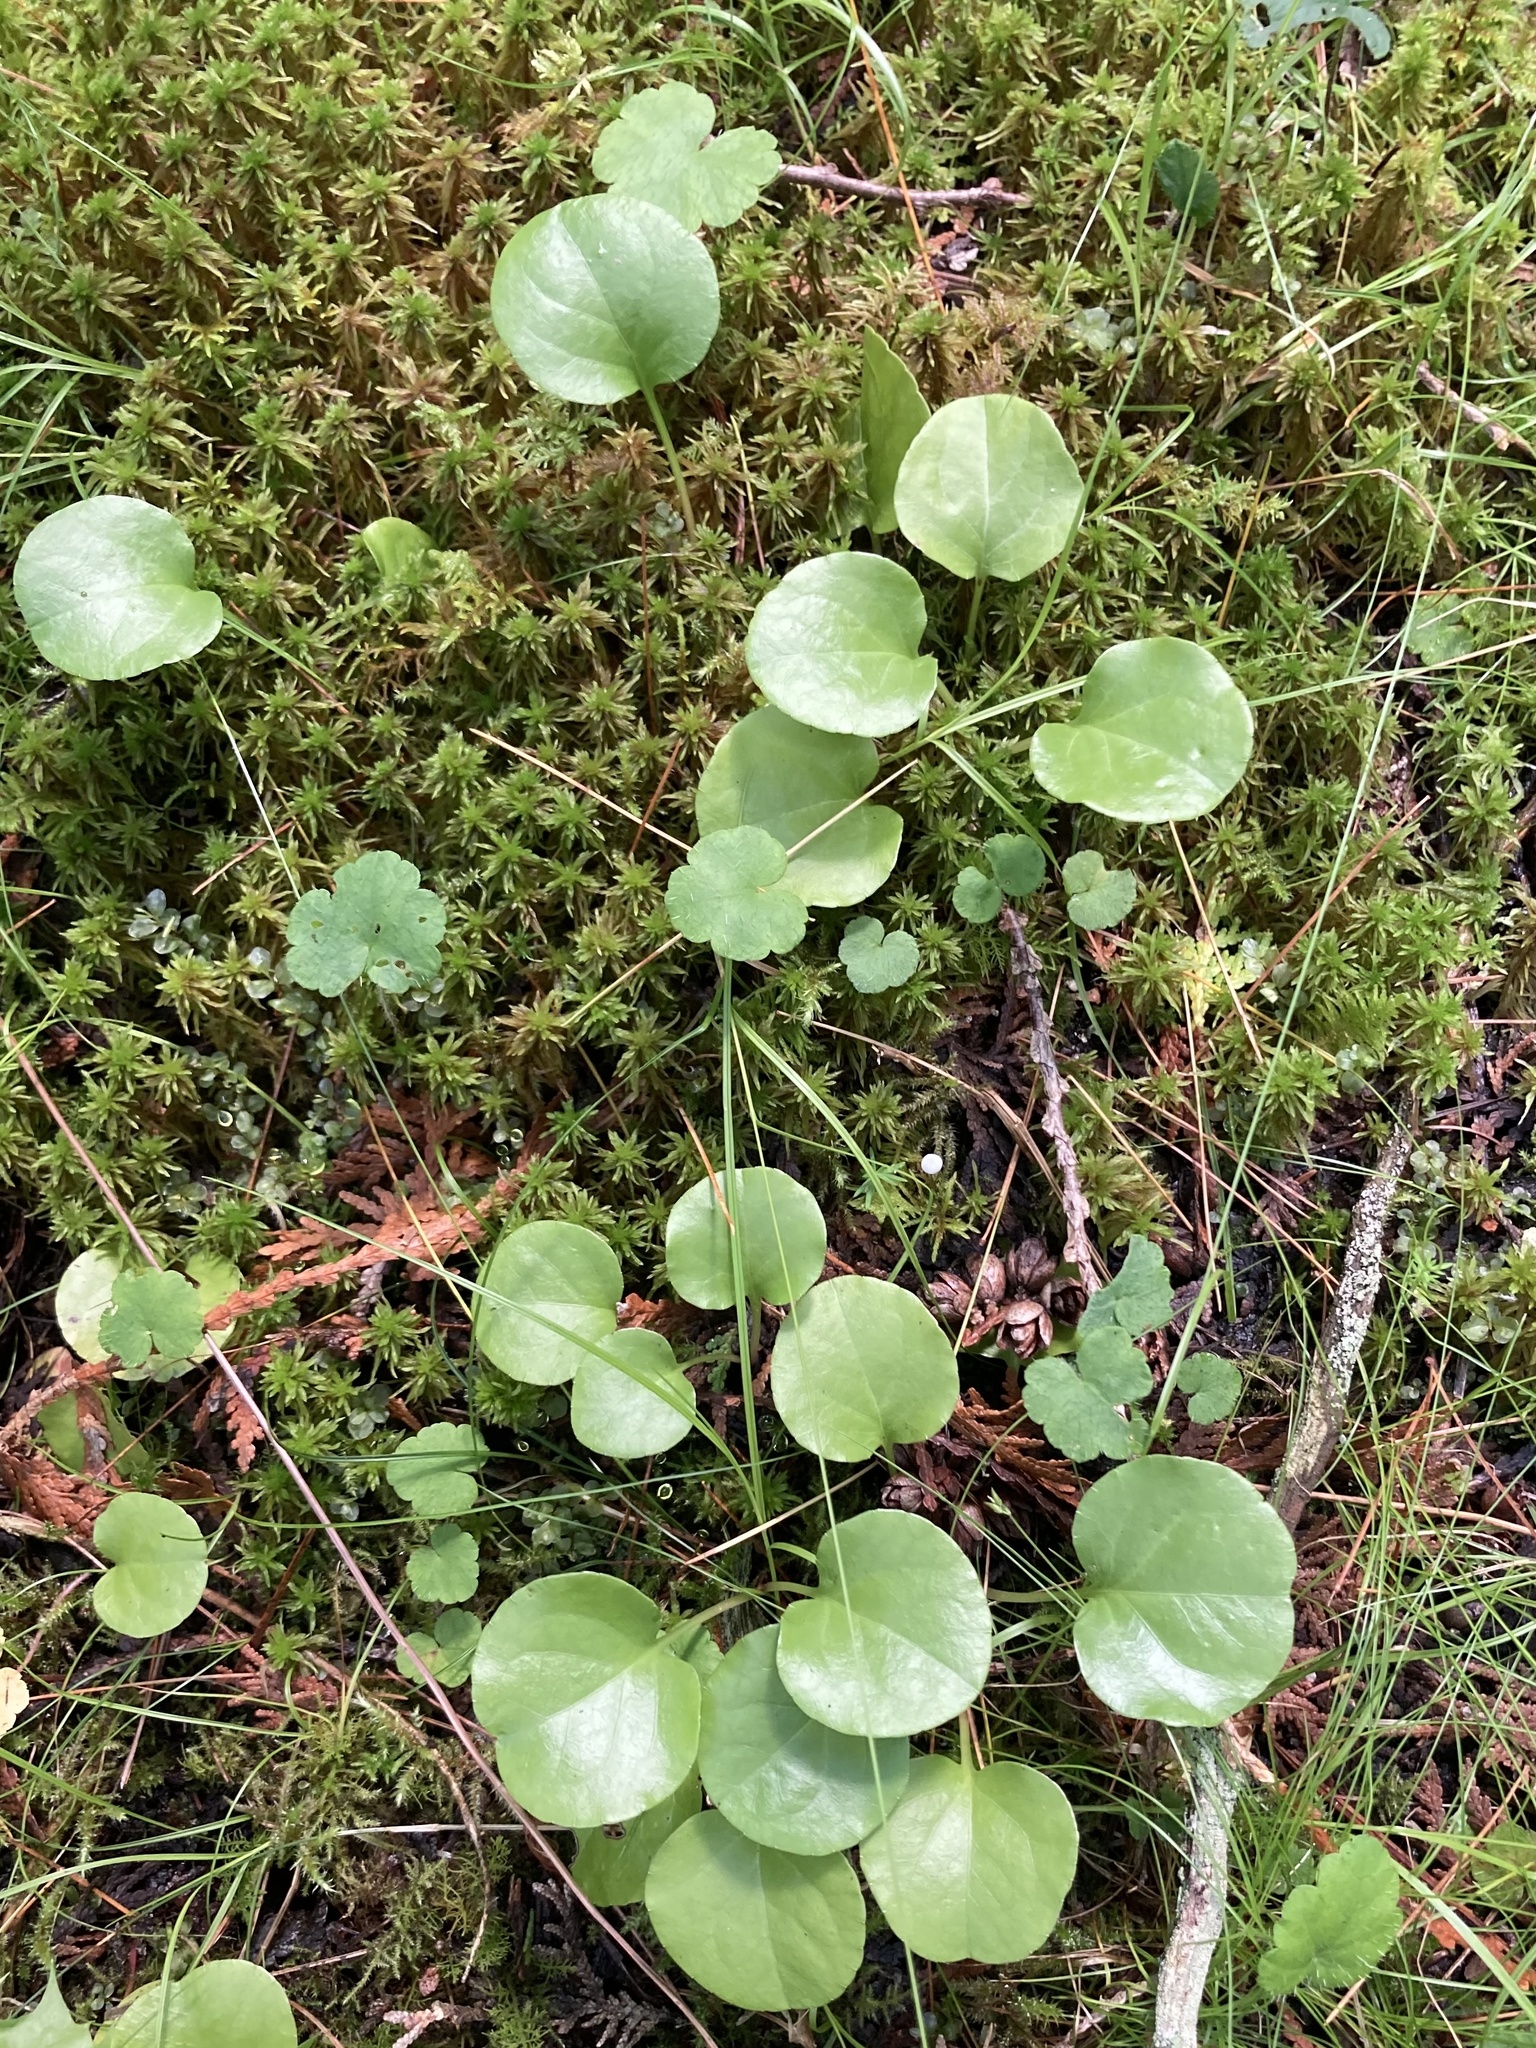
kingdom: Plantae
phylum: Tracheophyta
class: Magnoliopsida
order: Ericales
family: Ericaceae
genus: Pyrola
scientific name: Pyrola asarifolia
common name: Bog wintergreen
